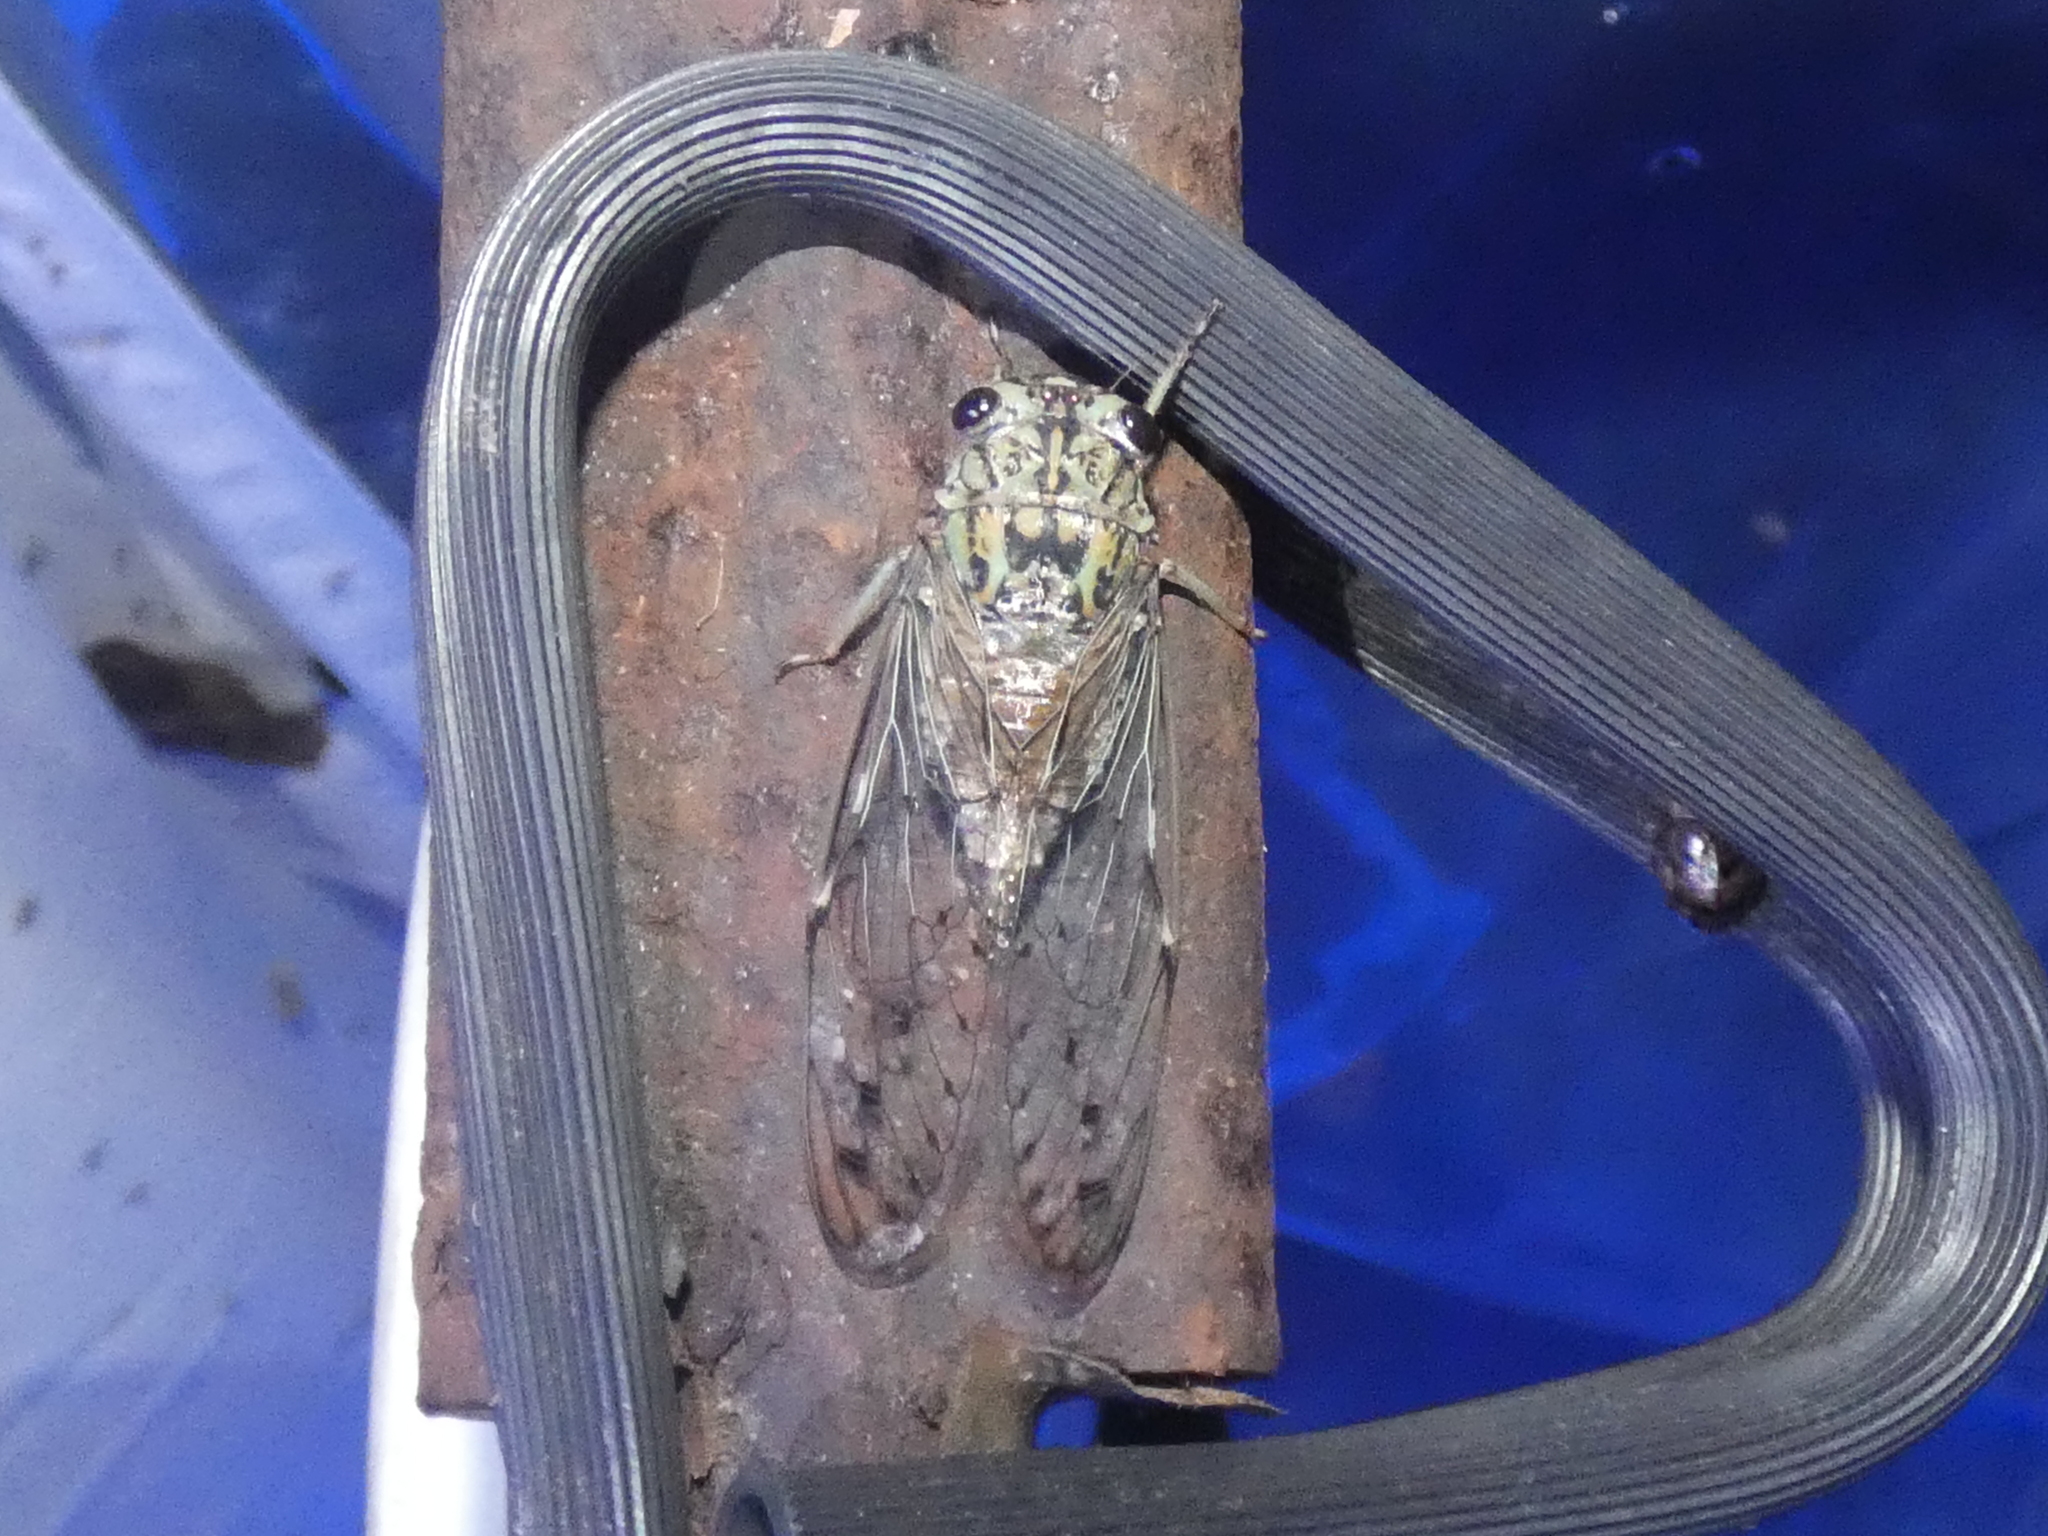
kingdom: Animalia
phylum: Arthropoda
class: Insecta
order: Hemiptera
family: Cicadidae
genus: Neocicada
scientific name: Neocicada hieroglyphica
